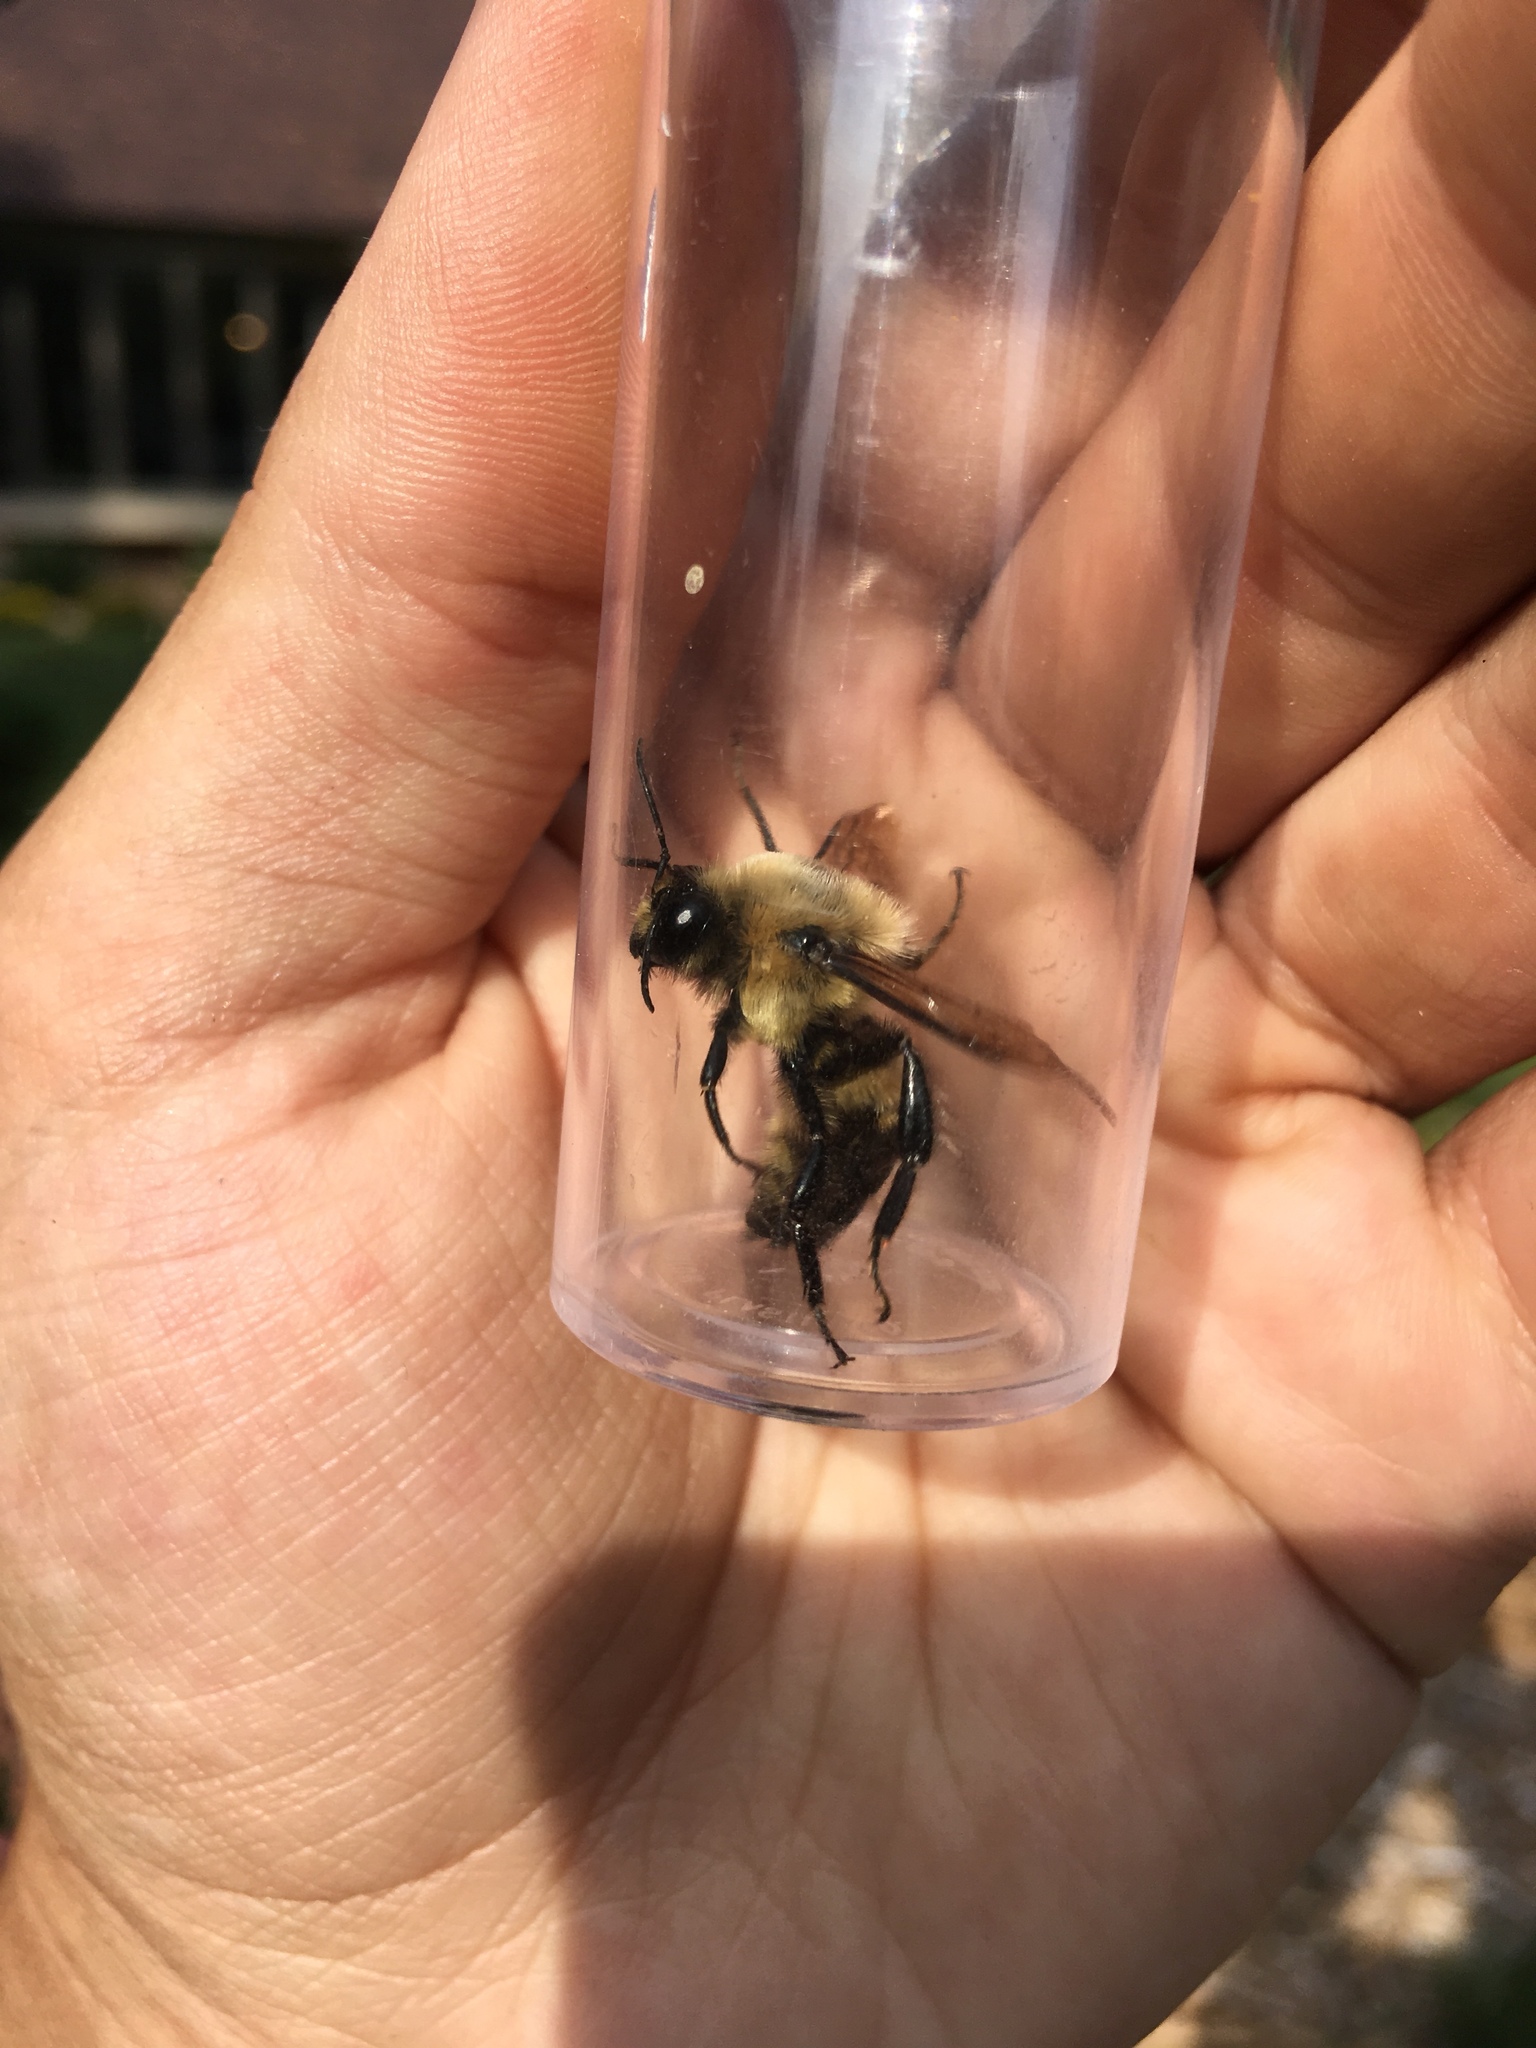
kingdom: Animalia
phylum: Arthropoda
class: Insecta
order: Hymenoptera
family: Apidae
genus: Bombus
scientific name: Bombus griseocollis
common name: Brown-belted bumble bee
